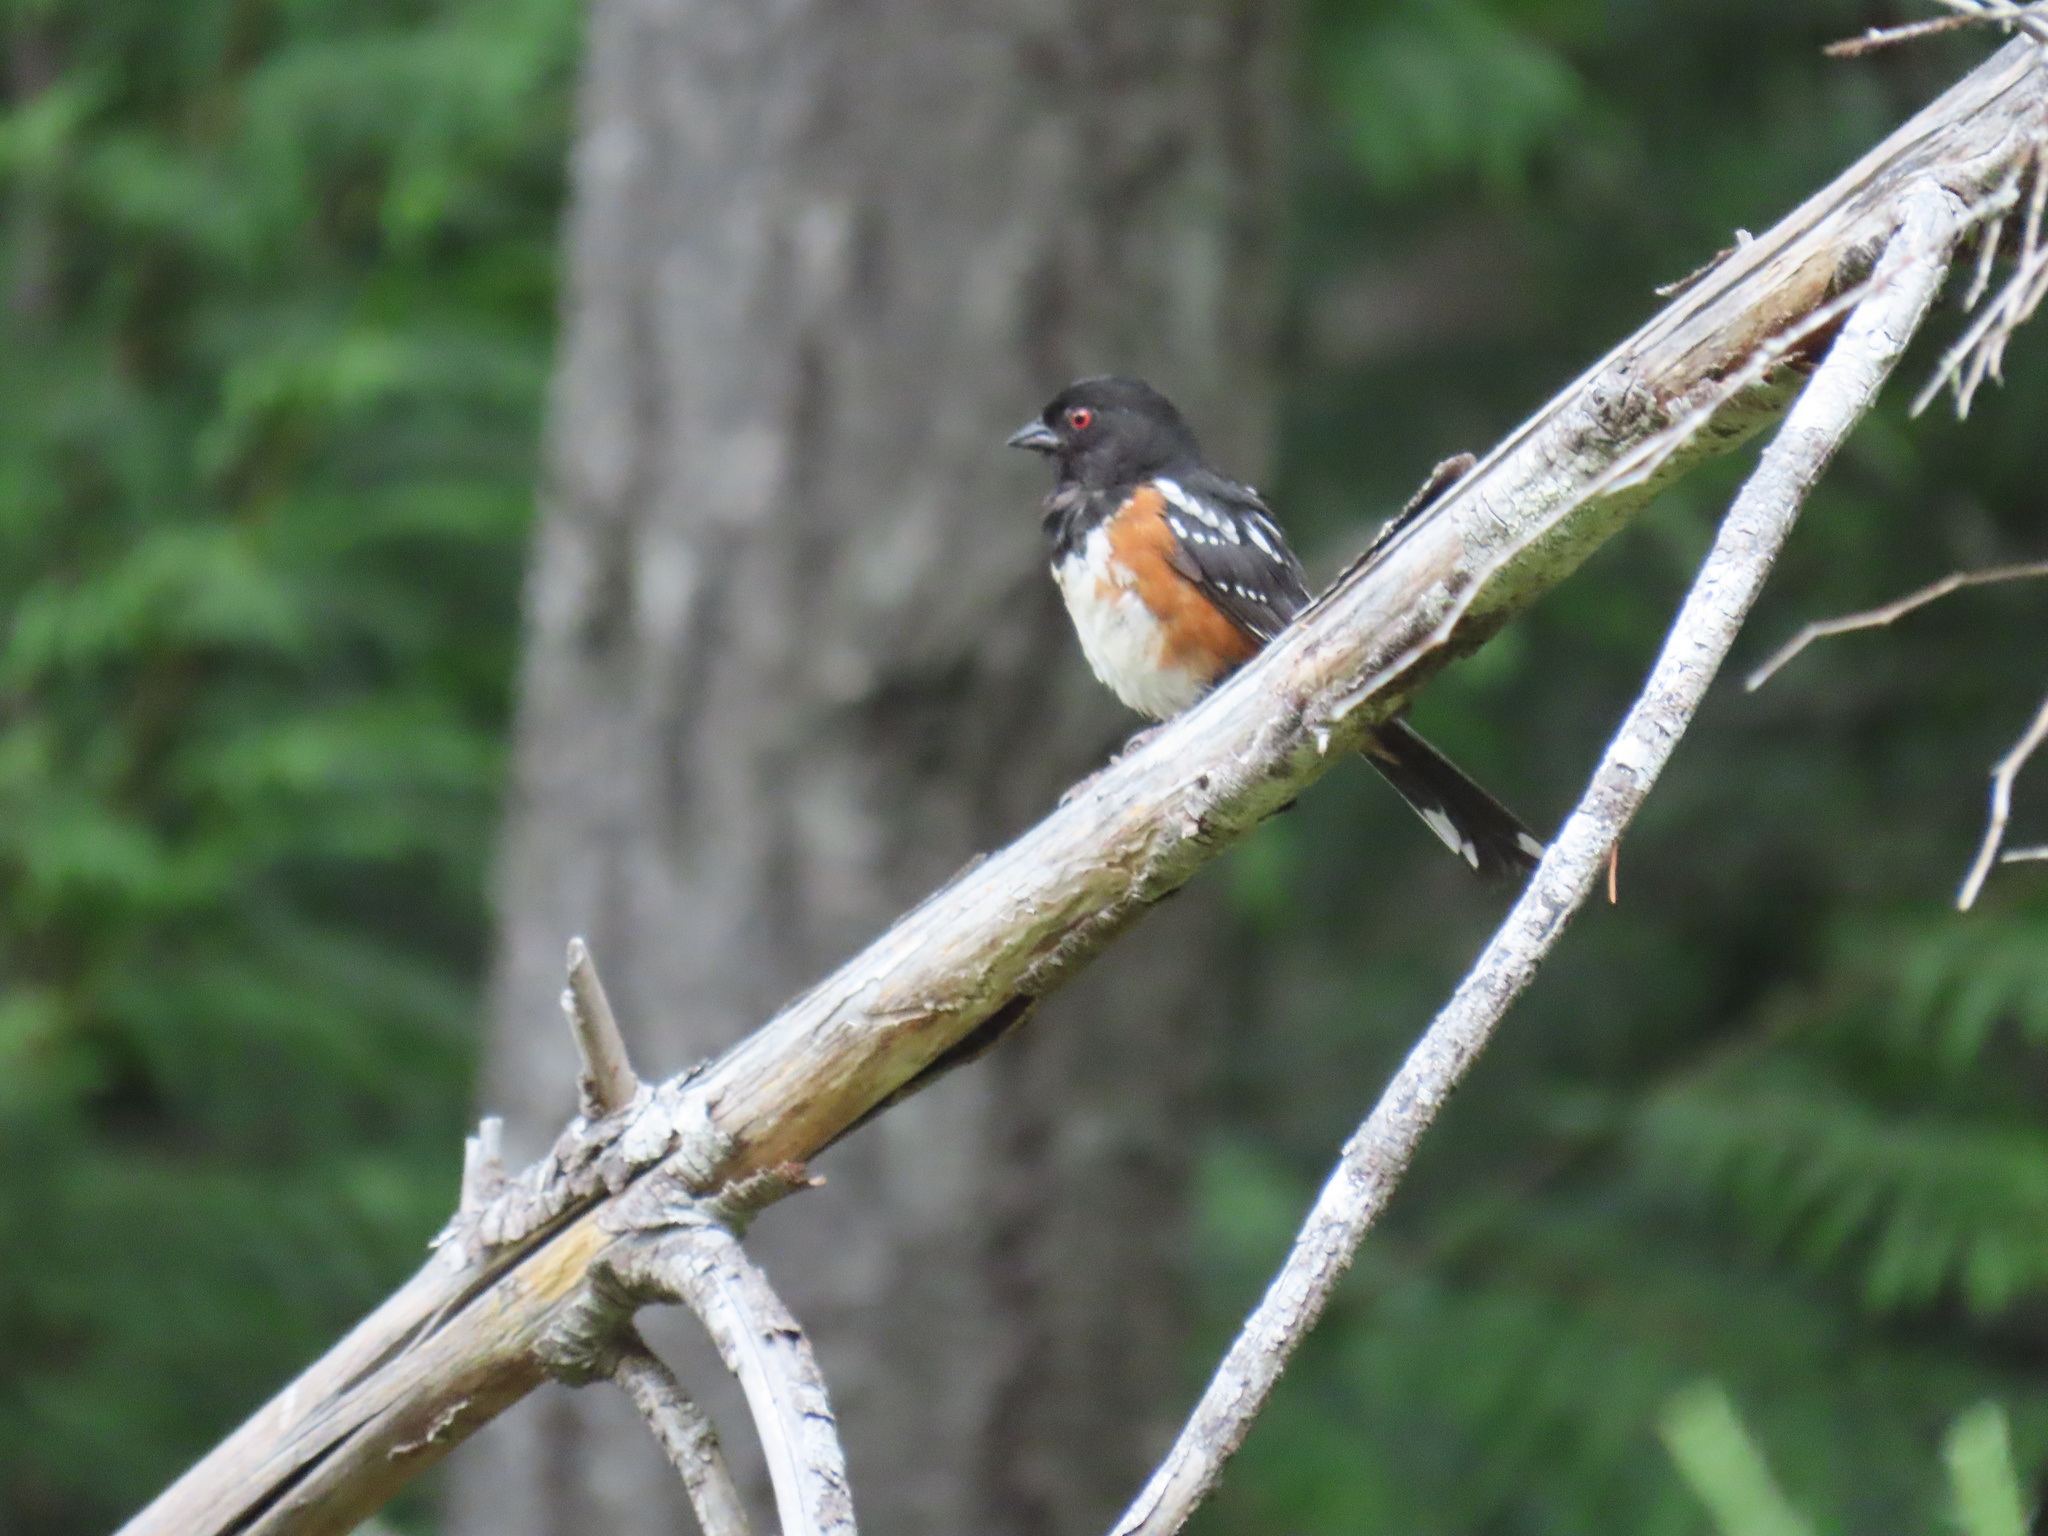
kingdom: Animalia
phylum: Chordata
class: Aves
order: Passeriformes
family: Passerellidae
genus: Pipilo
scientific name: Pipilo maculatus
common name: Spotted towhee
